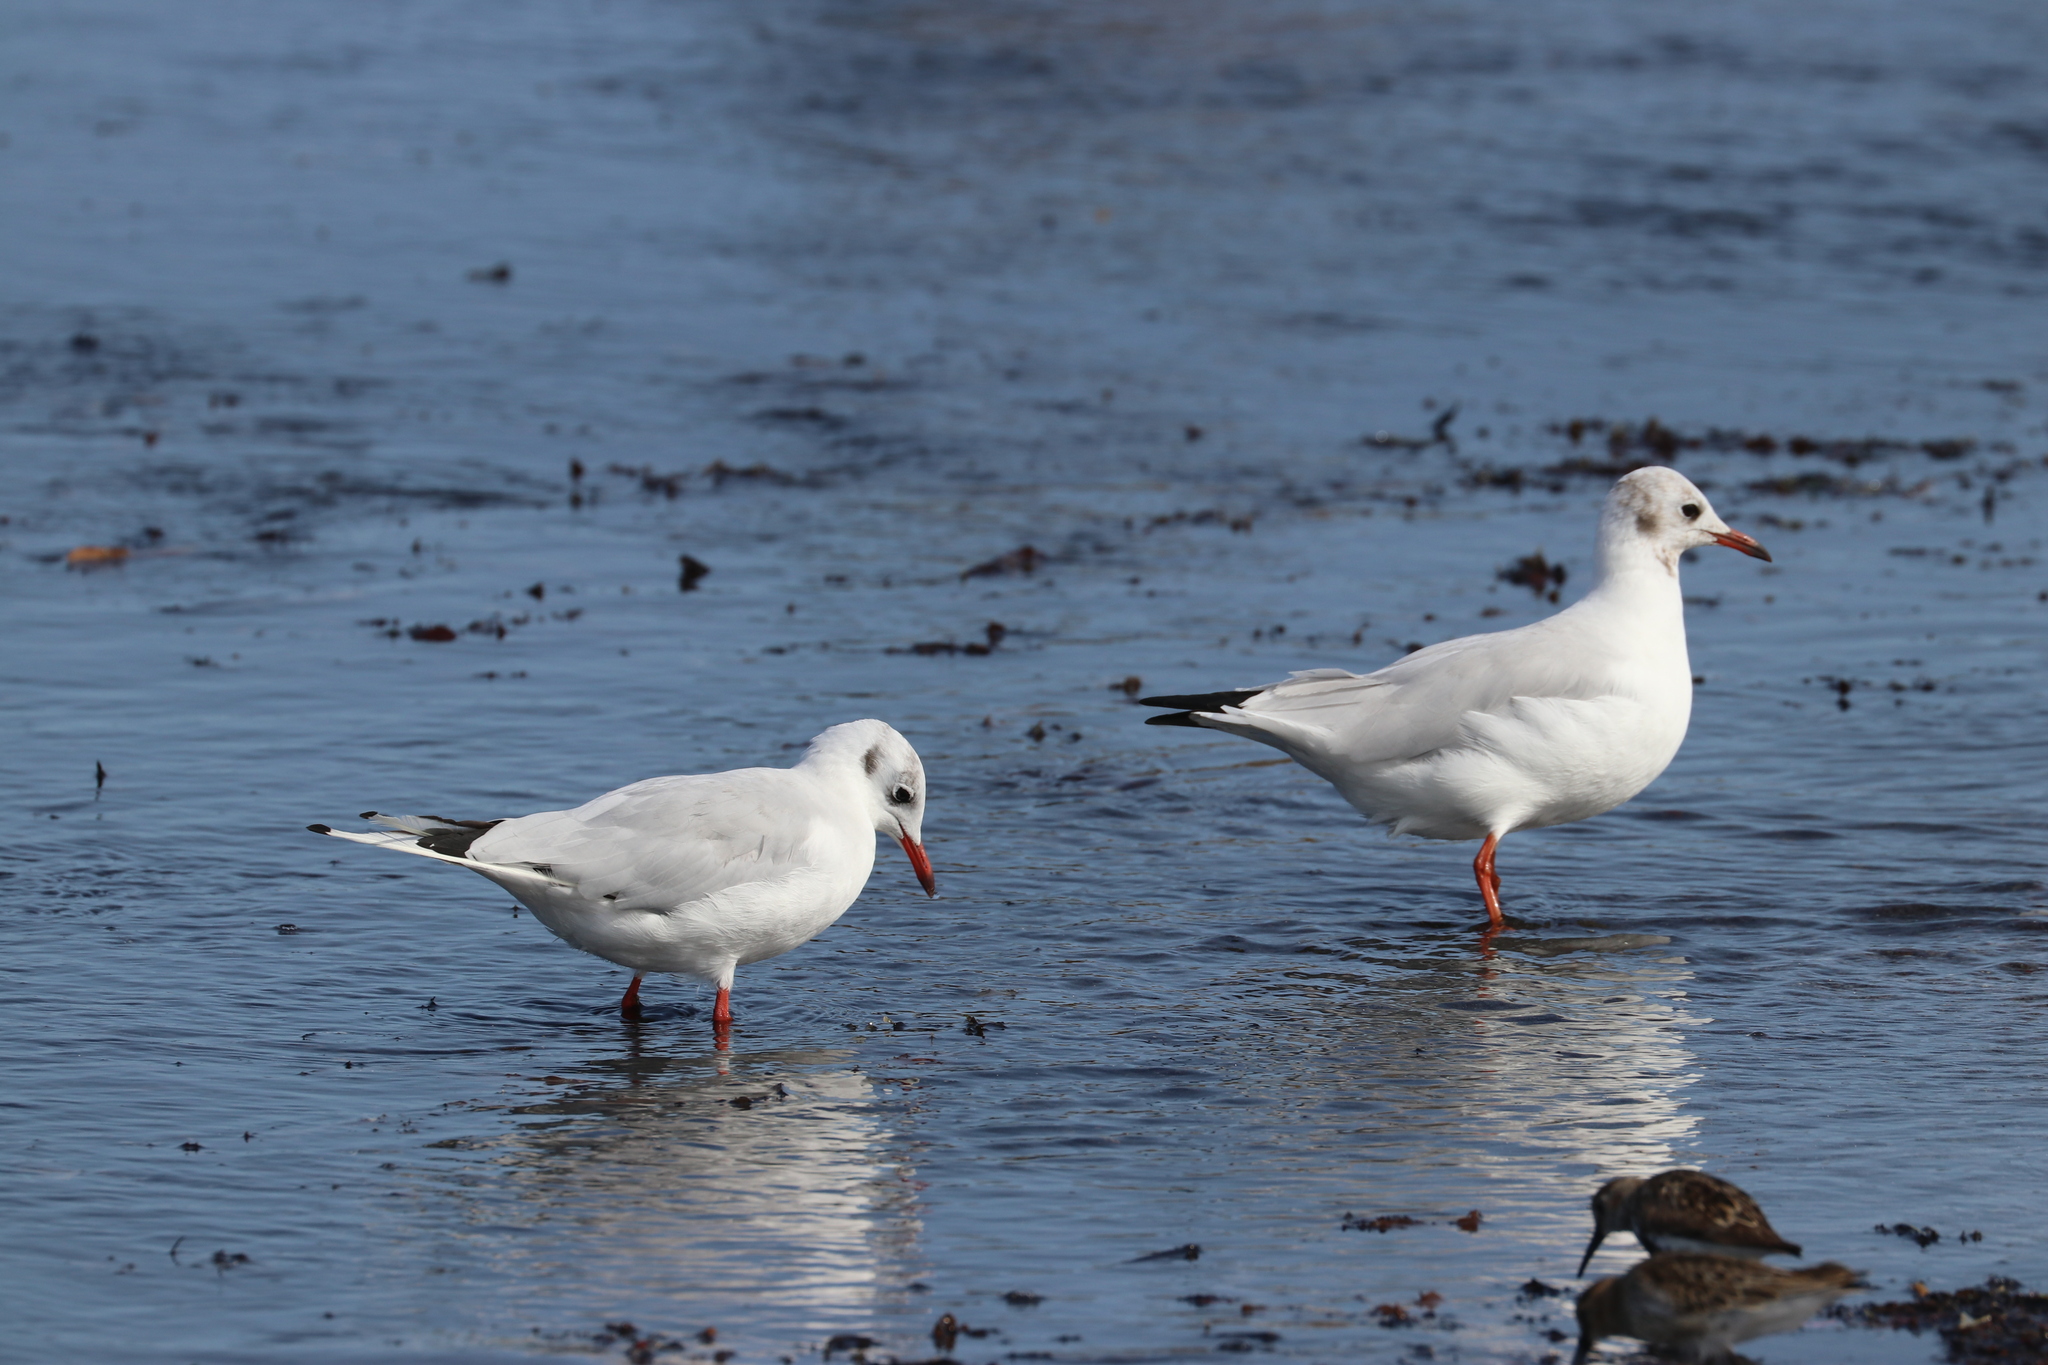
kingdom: Animalia
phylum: Chordata
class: Aves
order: Charadriiformes
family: Laridae
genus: Chroicocephalus
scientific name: Chroicocephalus ridibundus
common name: Black-headed gull
